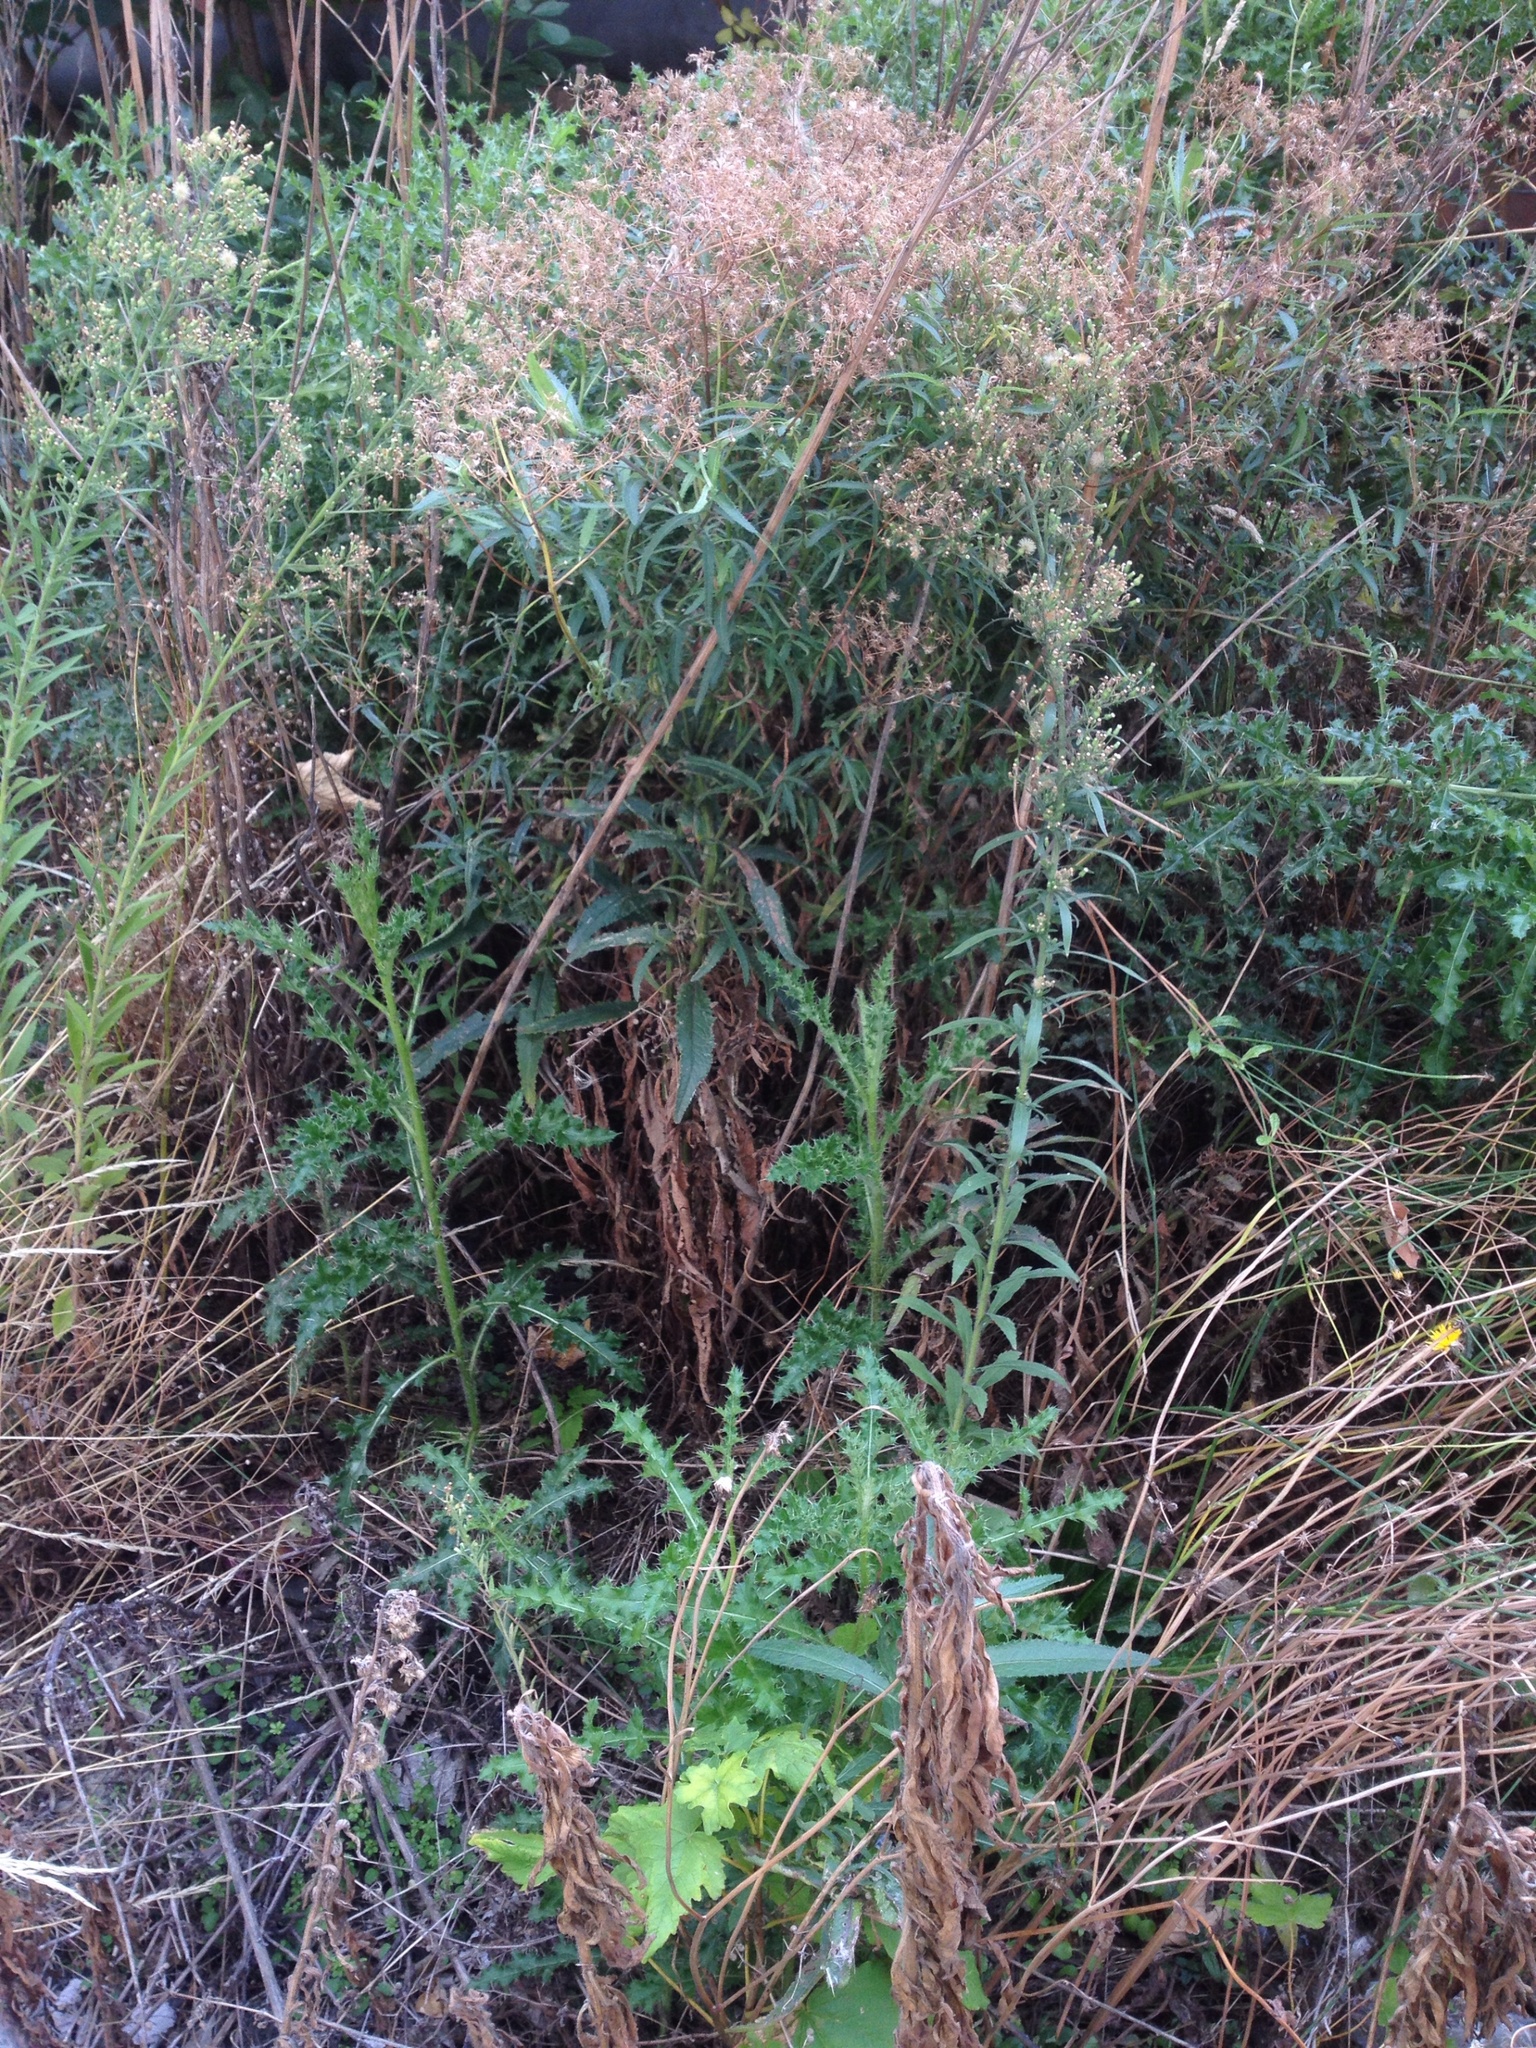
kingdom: Plantae
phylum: Tracheophyta
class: Magnoliopsida
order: Asterales
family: Asteraceae
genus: Senecio
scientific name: Senecio minimus
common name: Toothed fireweed
